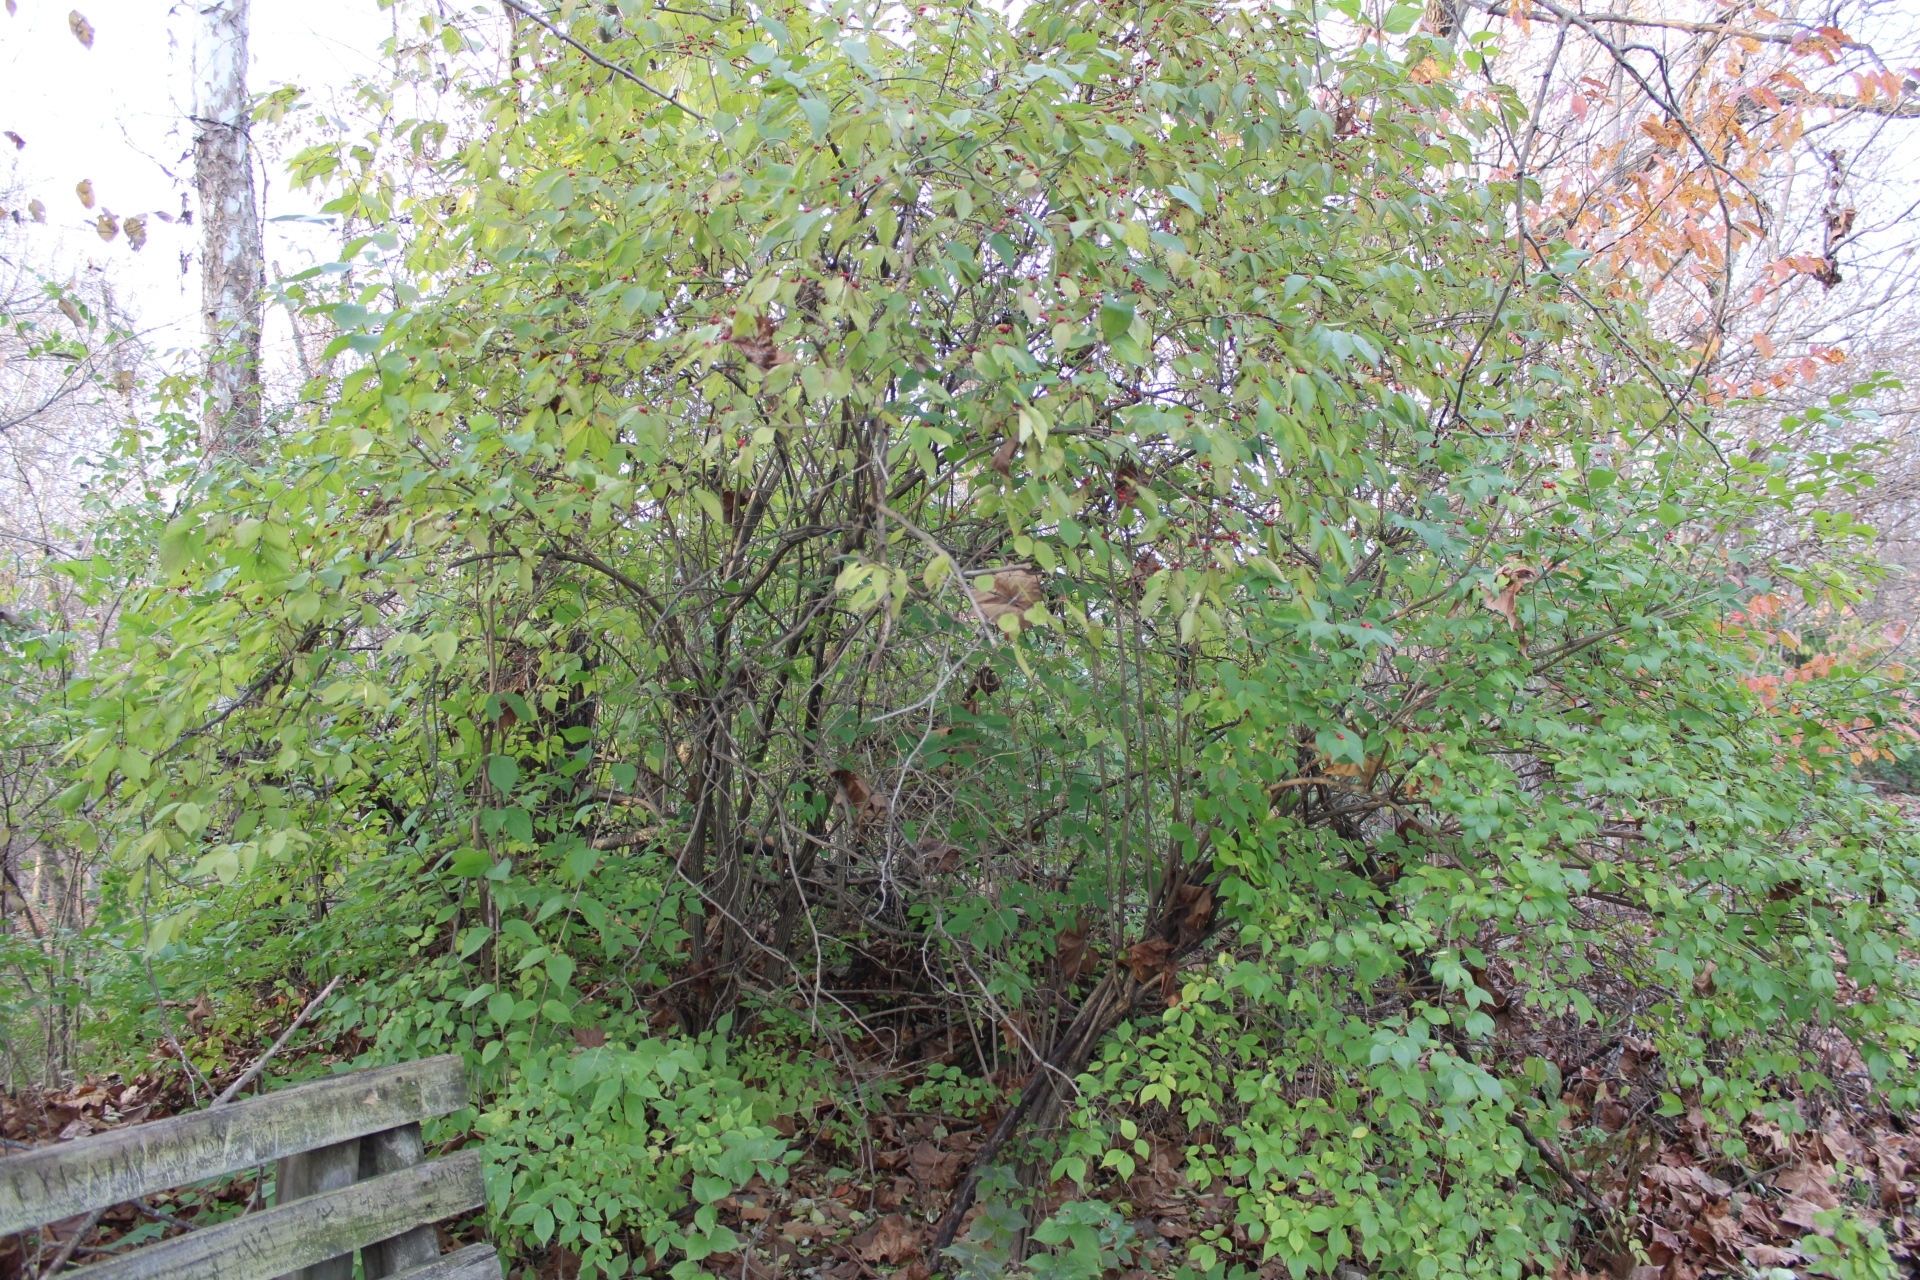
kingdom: Plantae
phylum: Tracheophyta
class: Magnoliopsida
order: Dipsacales
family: Caprifoliaceae
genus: Lonicera
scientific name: Lonicera maackii
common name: Amur honeysuckle
